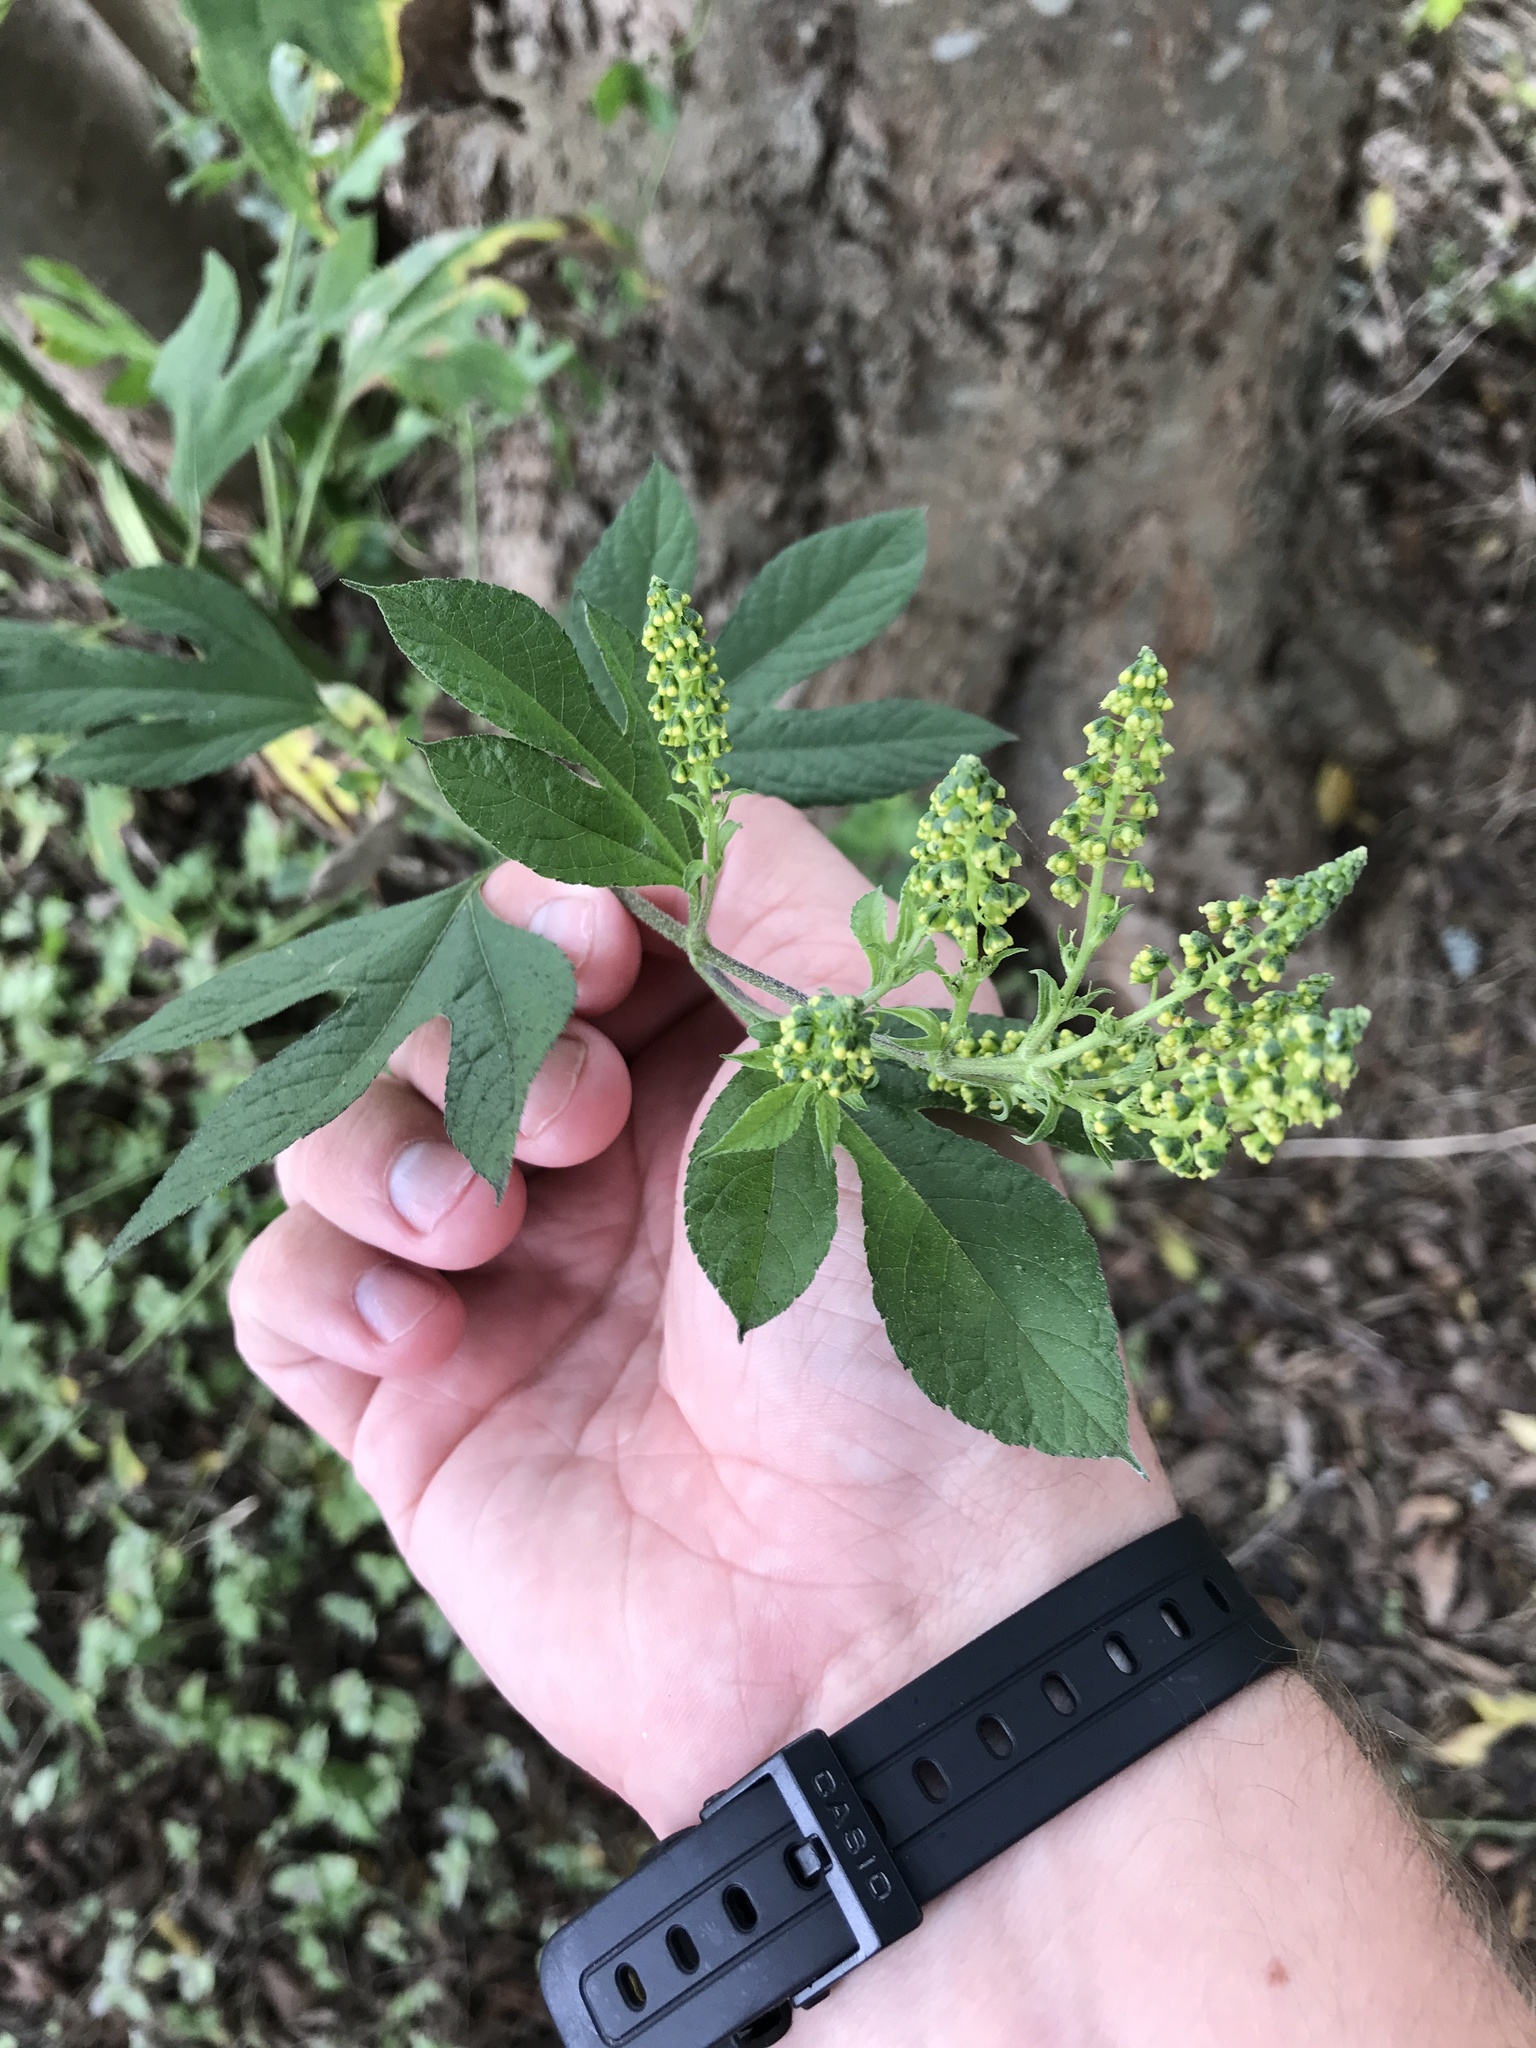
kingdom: Plantae
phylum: Tracheophyta
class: Magnoliopsida
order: Asterales
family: Asteraceae
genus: Ambrosia
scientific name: Ambrosia trifida
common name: Giant ragweed
